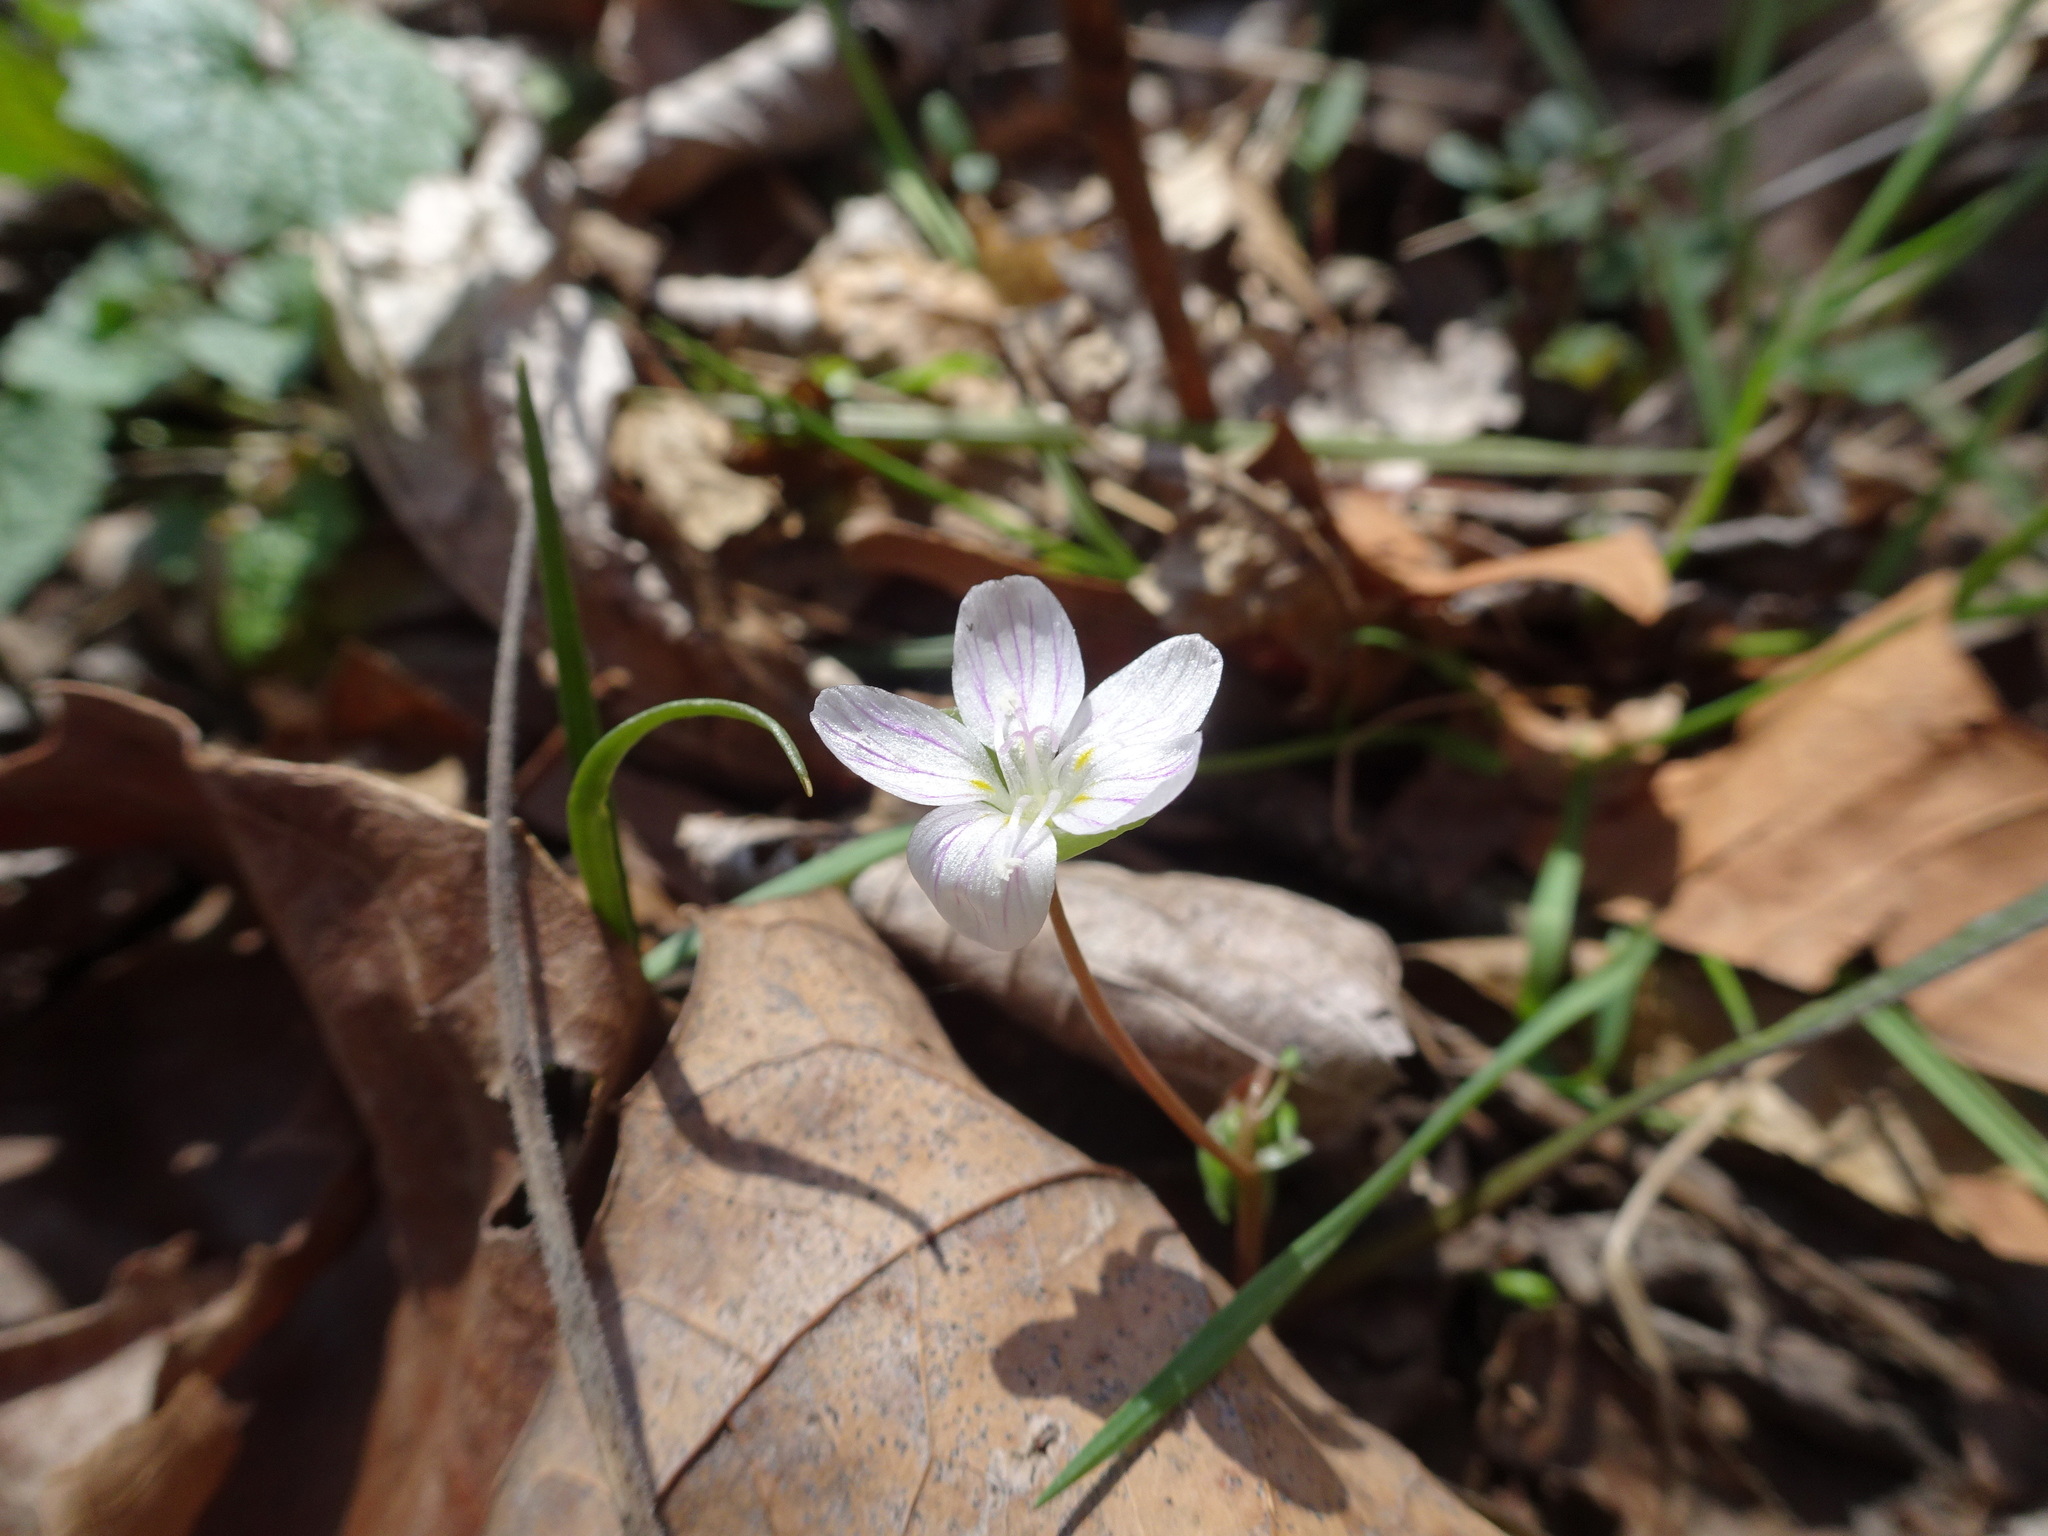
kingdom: Plantae
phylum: Tracheophyta
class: Magnoliopsida
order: Caryophyllales
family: Montiaceae
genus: Claytonia
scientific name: Claytonia virginica
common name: Virginia springbeauty
